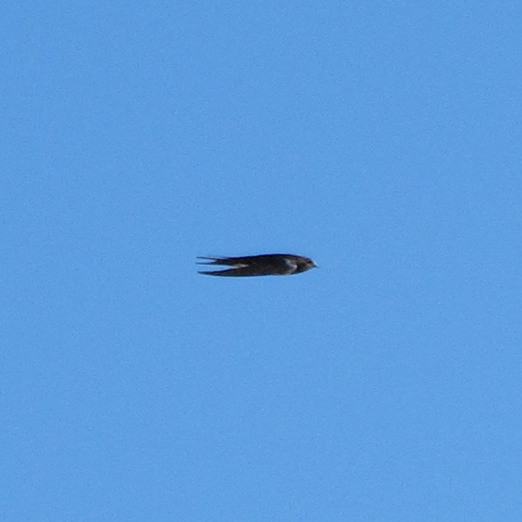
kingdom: Animalia
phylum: Chordata
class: Aves
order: Passeriformes
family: Hirundinidae
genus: Hirundo
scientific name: Hirundo rustica
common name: Barn swallow
